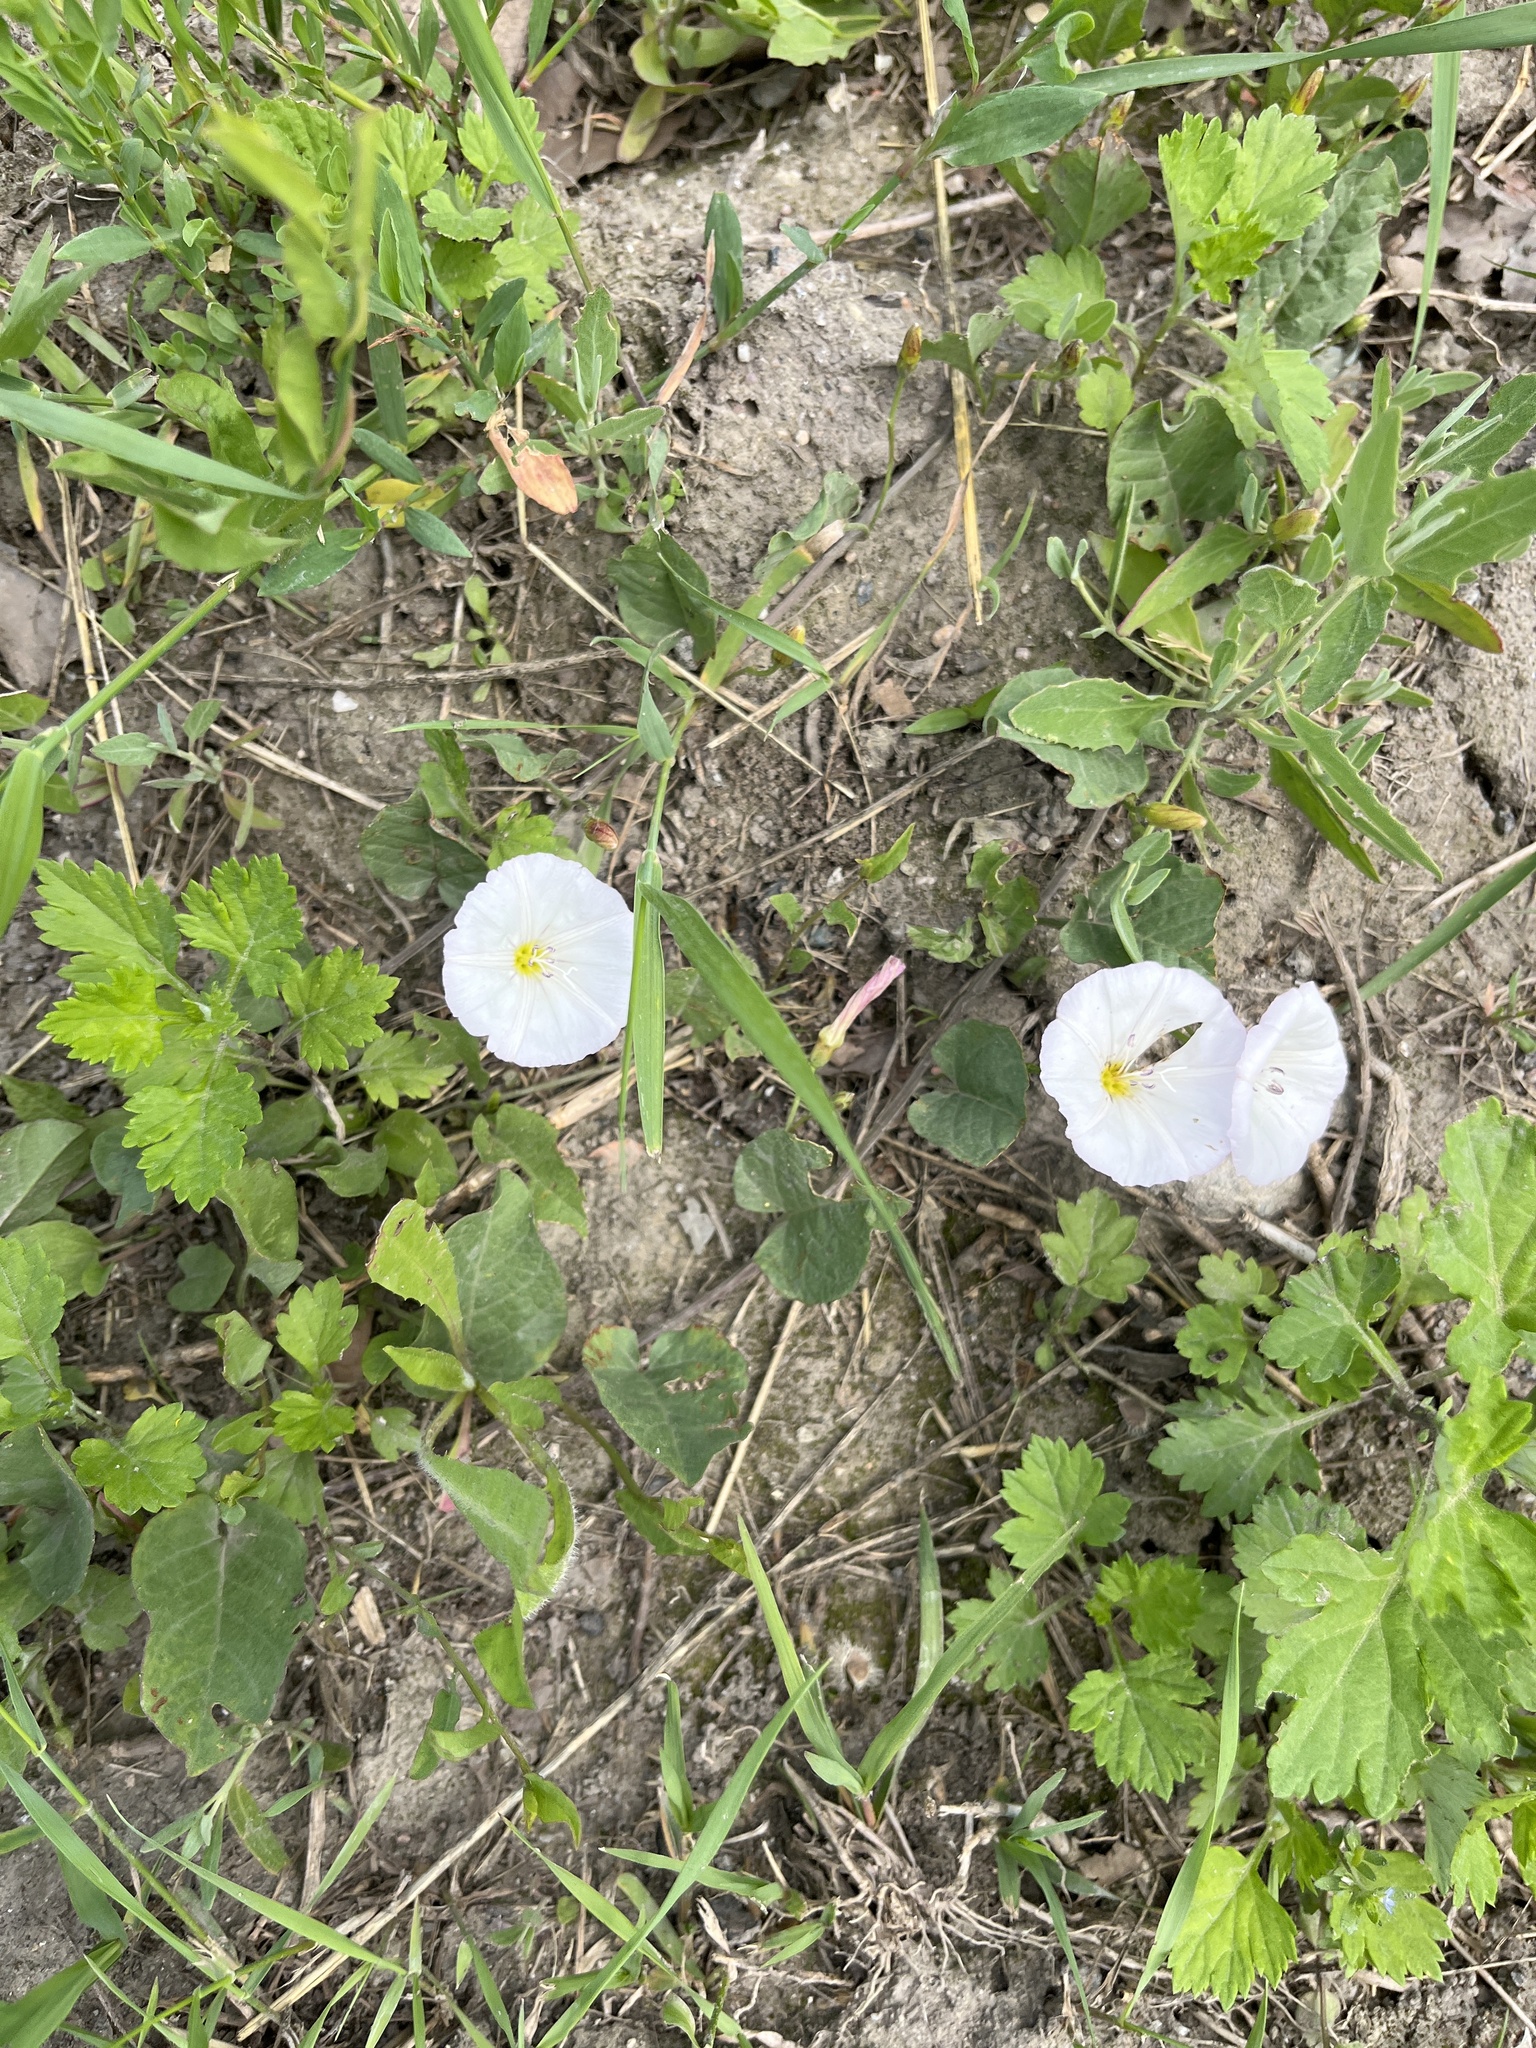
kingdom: Plantae
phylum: Tracheophyta
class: Magnoliopsida
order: Solanales
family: Convolvulaceae
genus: Convolvulus
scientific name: Convolvulus arvensis
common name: Field bindweed
